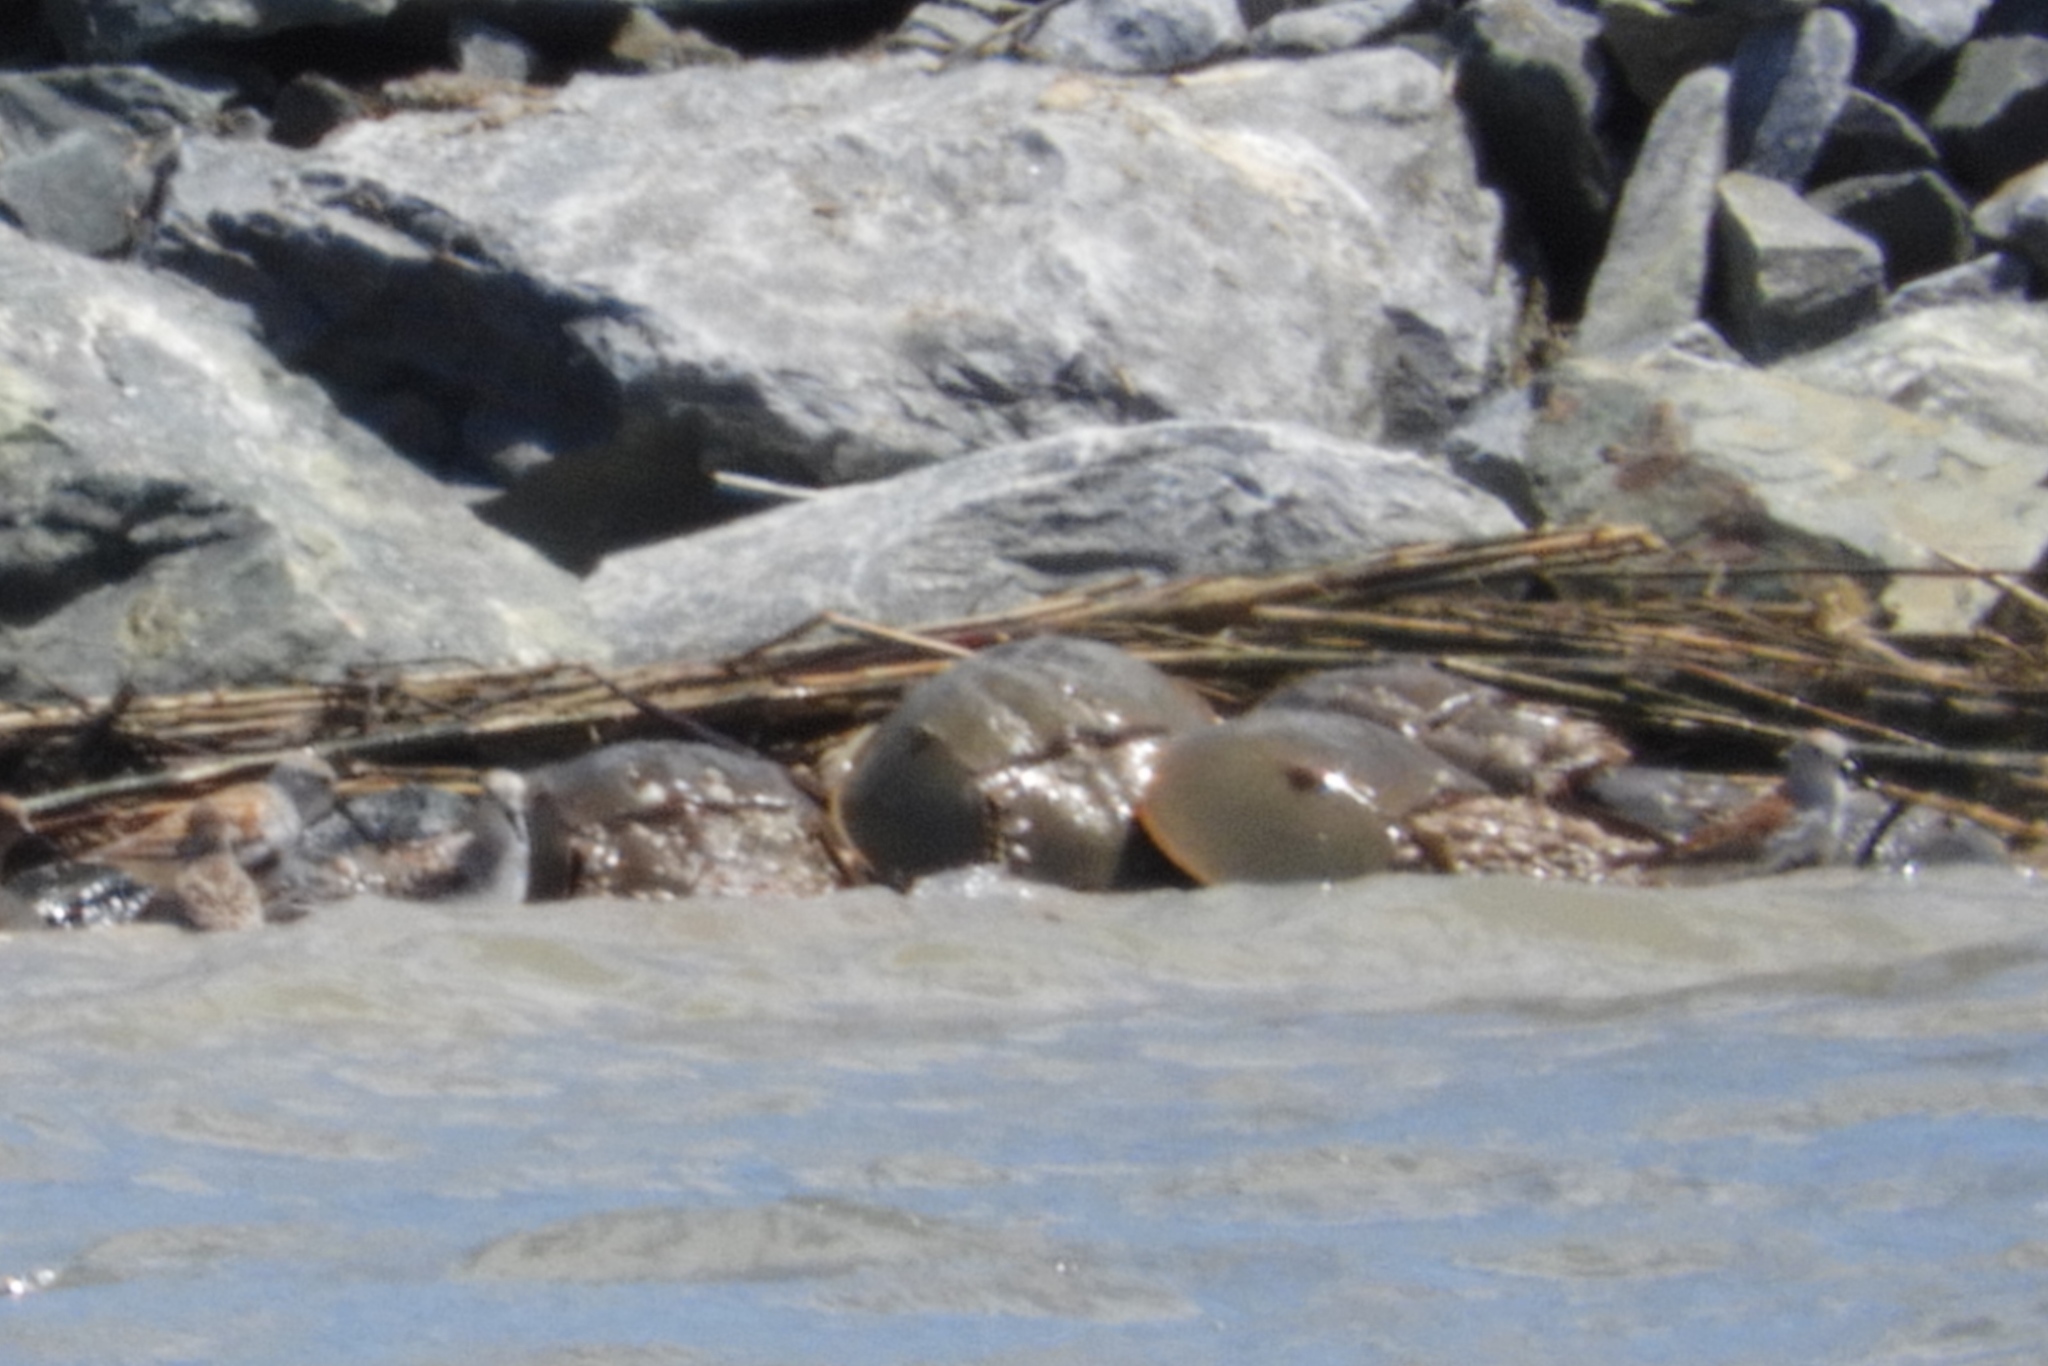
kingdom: Animalia
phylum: Arthropoda
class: Merostomata
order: Xiphosurida
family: Limulidae
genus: Limulus
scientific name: Limulus polyphemus
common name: Horseshoe crab
